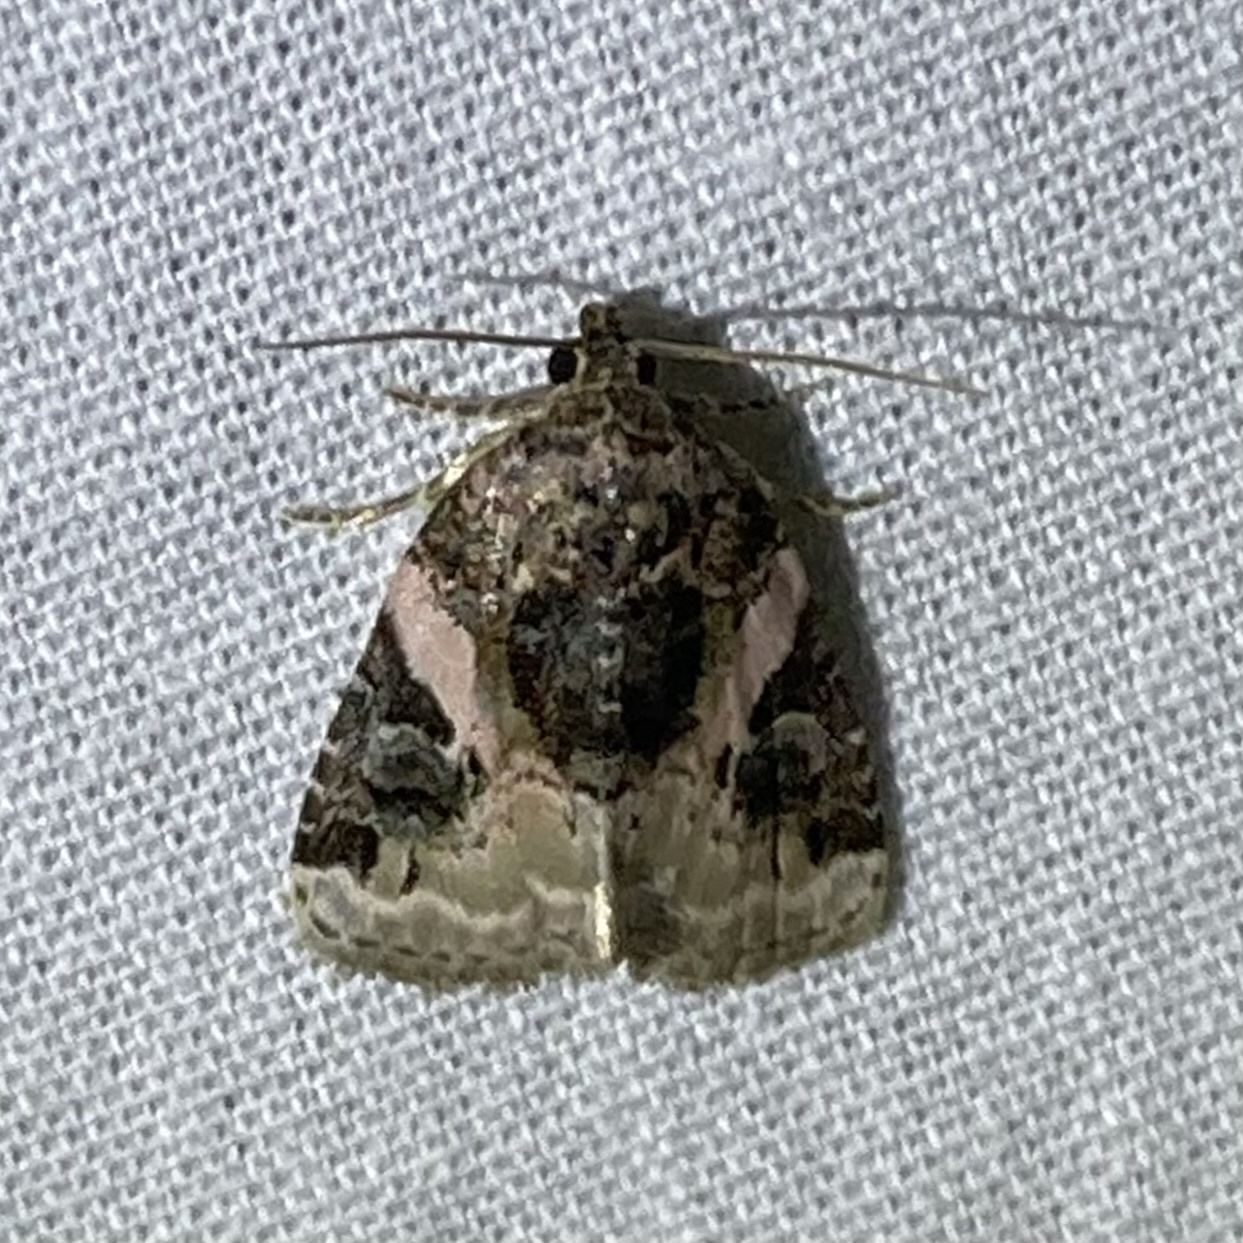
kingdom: Animalia
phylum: Arthropoda
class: Insecta
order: Lepidoptera
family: Noctuidae
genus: Pseudeustrotia
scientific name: Pseudeustrotia carneola
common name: Pink-barred lithacodia moth
